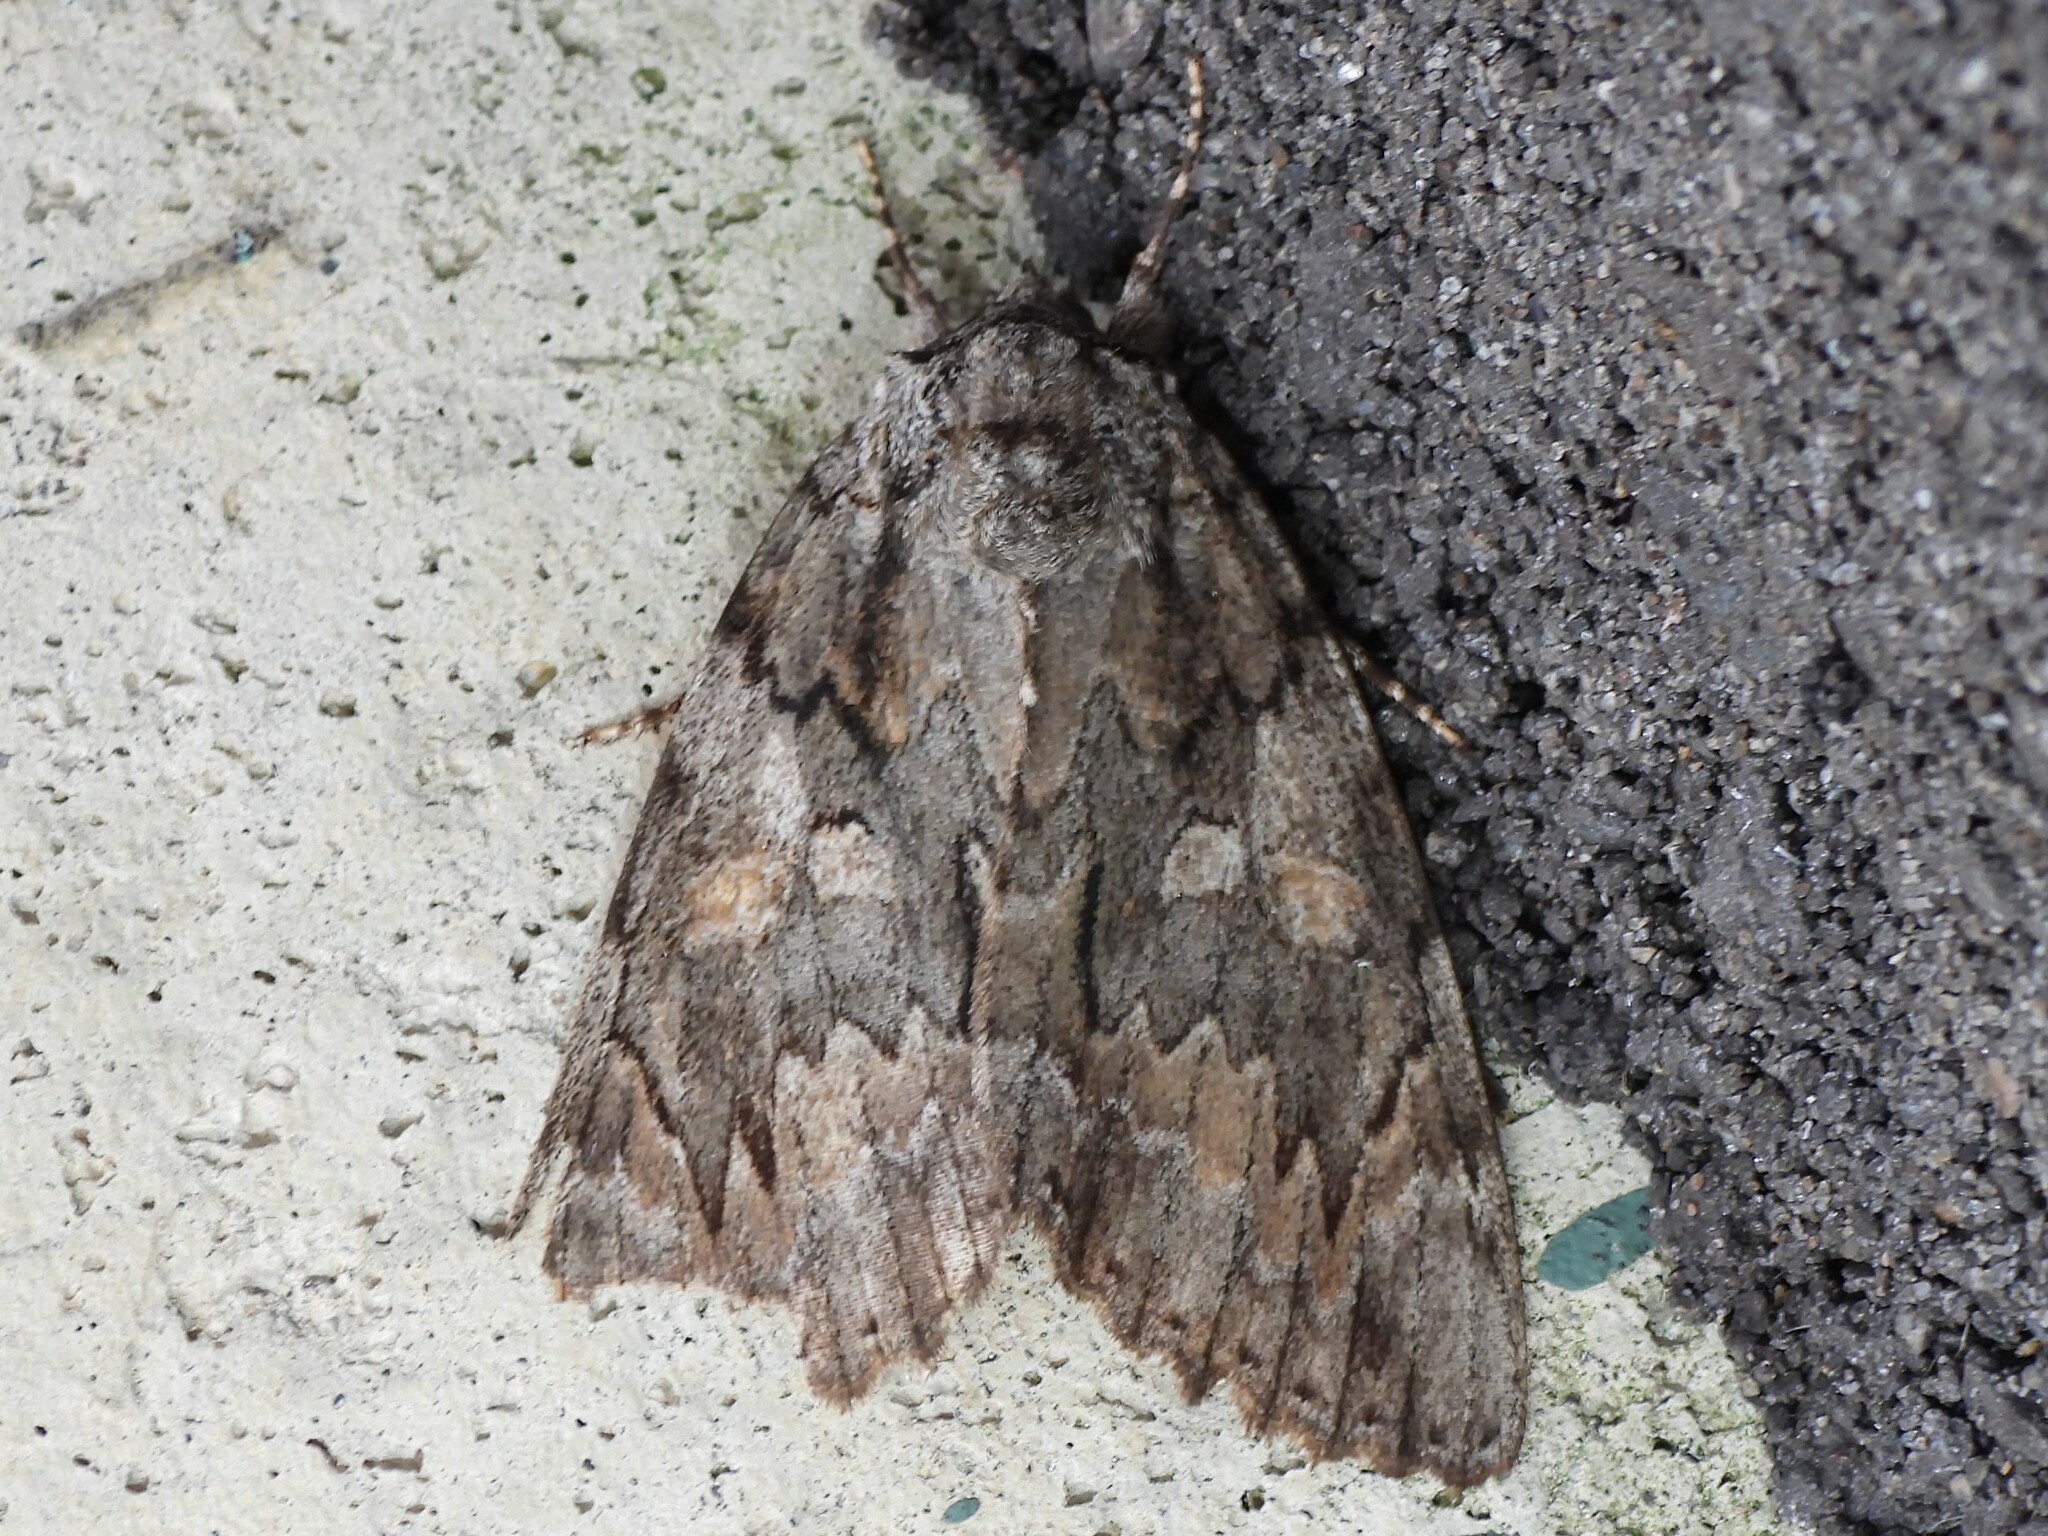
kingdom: Animalia
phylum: Arthropoda
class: Insecta
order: Lepidoptera
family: Erebidae
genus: Catocala
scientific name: Catocala neogama
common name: Bride underwing
